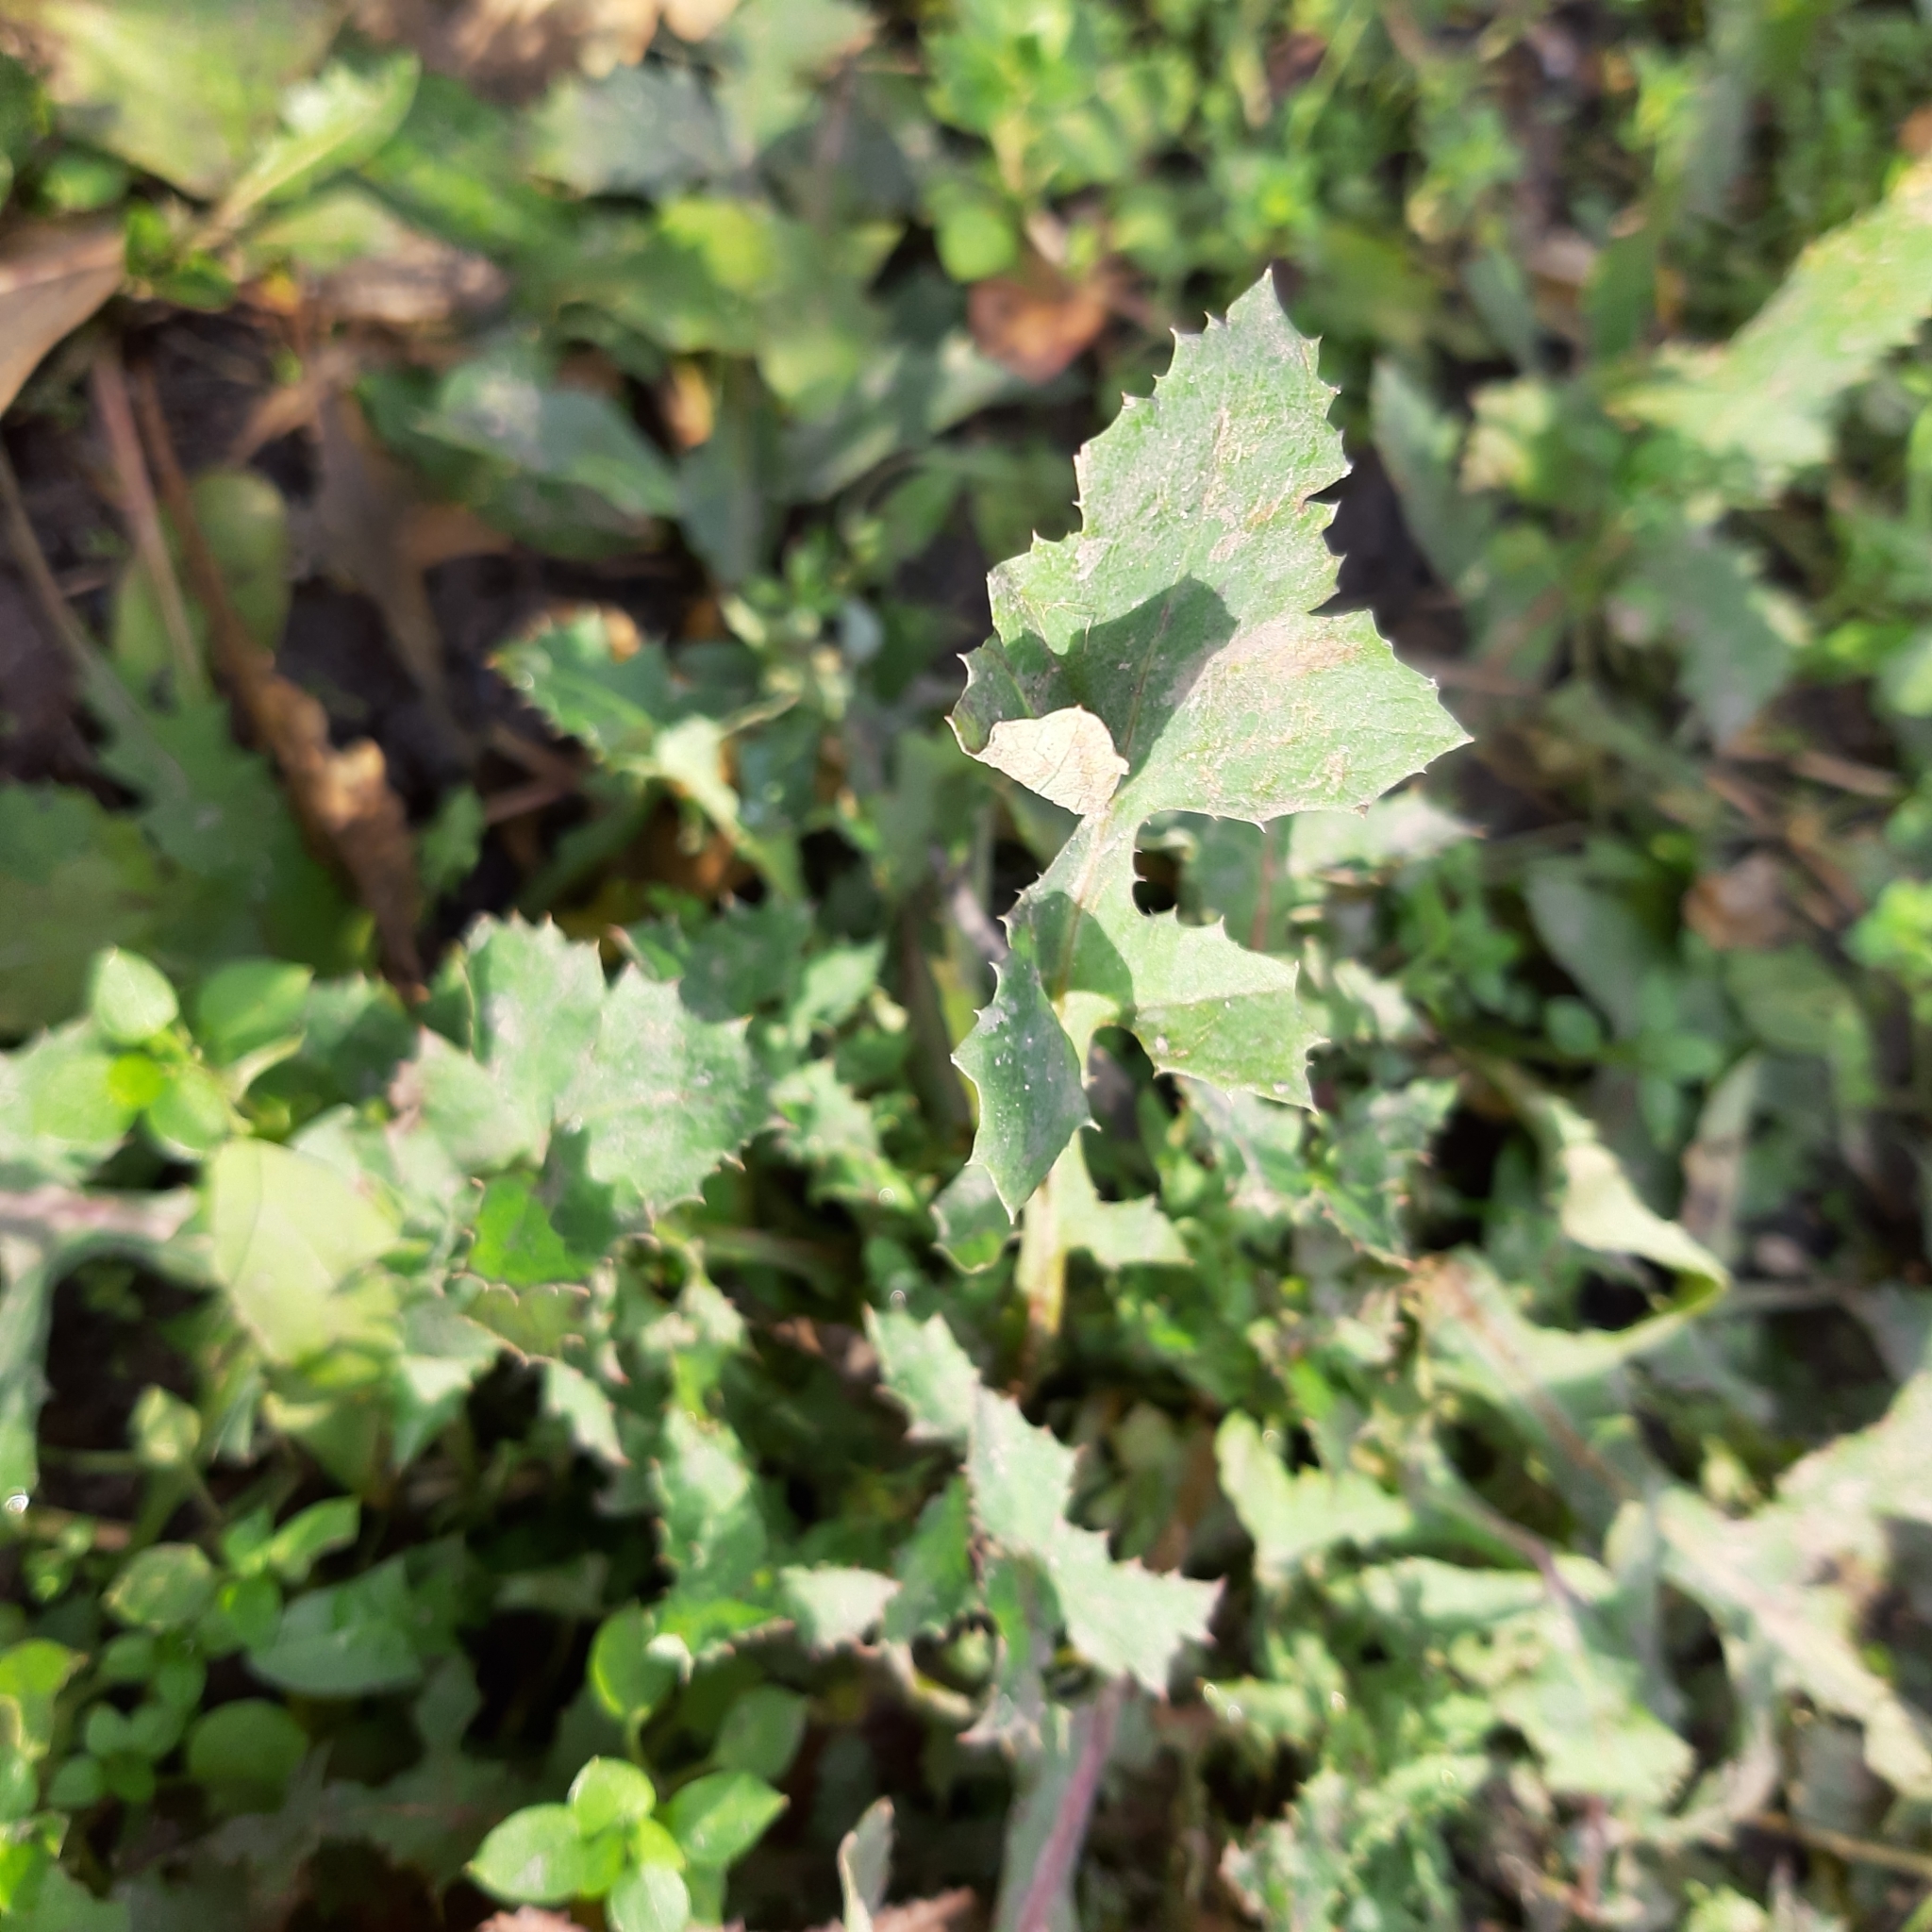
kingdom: Plantae
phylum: Tracheophyta
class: Magnoliopsida
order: Asterales
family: Asteraceae
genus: Sonchus
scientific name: Sonchus oleraceus
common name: Common sowthistle
